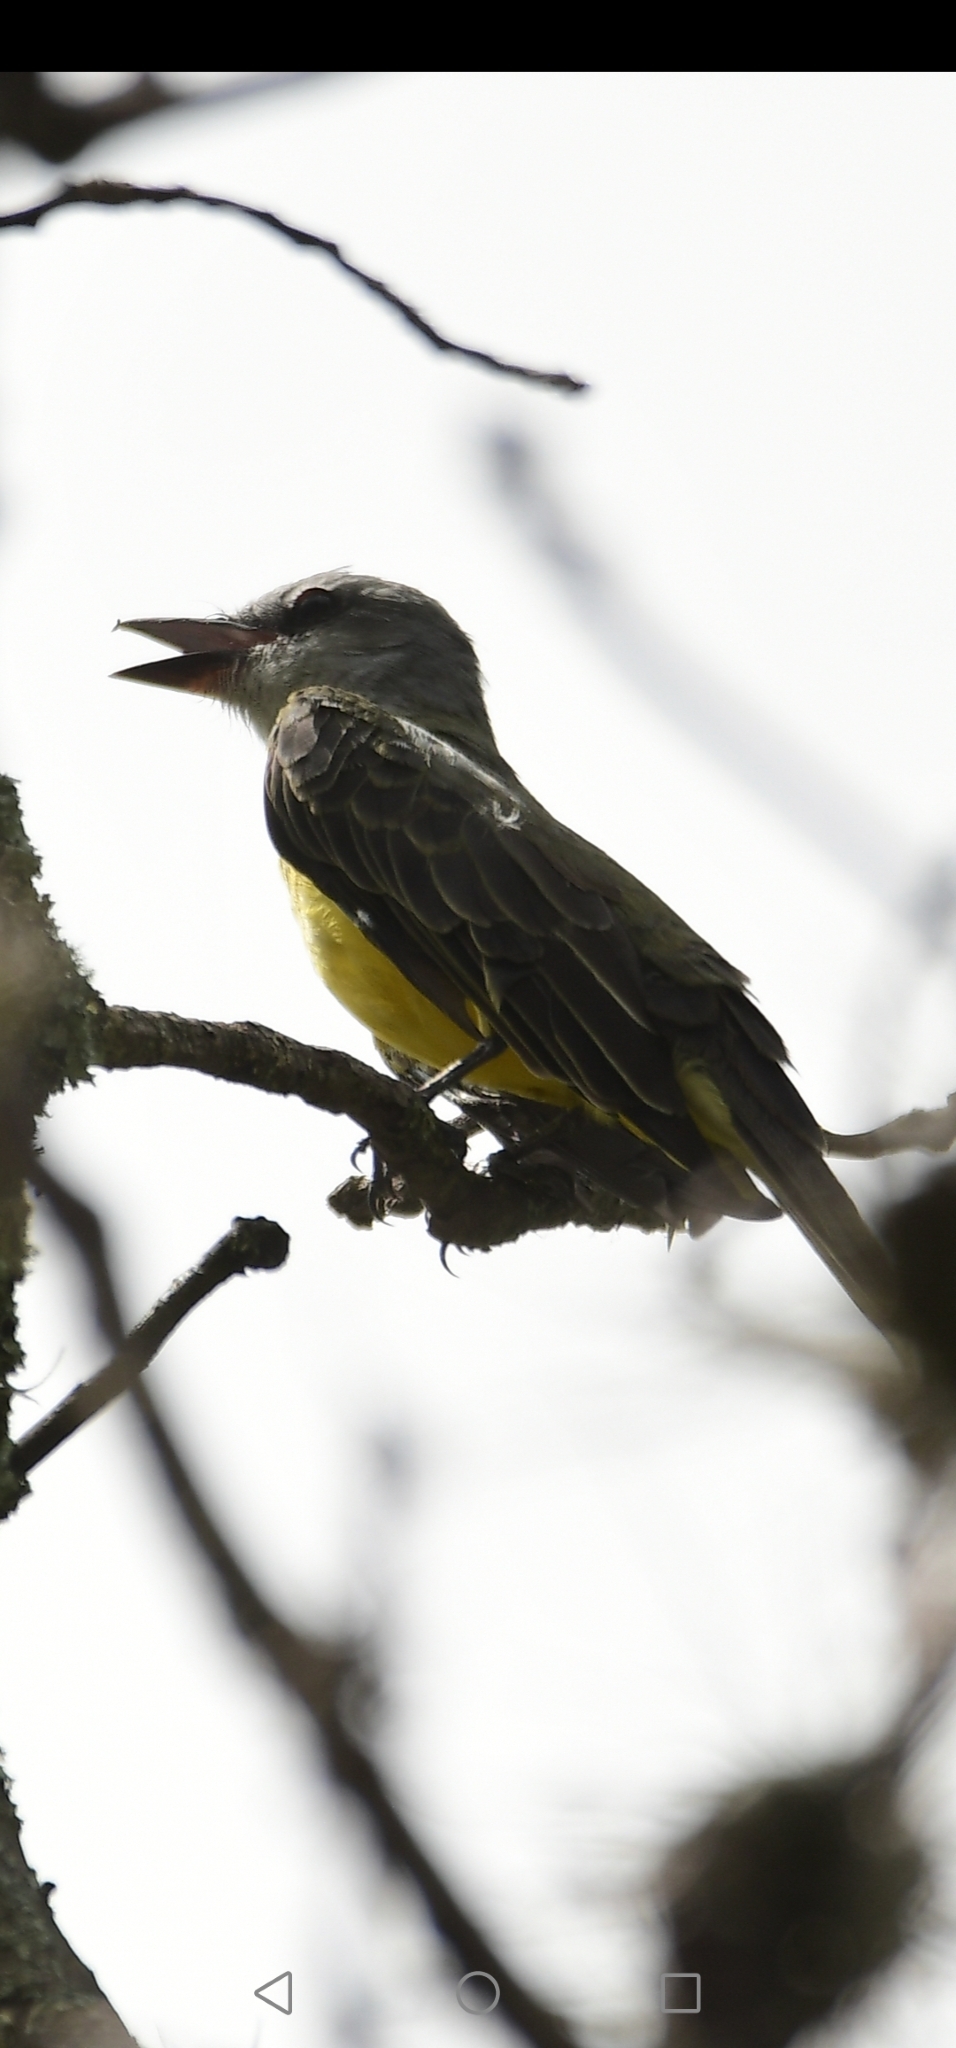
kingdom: Animalia
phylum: Chordata
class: Aves
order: Passeriformes
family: Tyrannidae
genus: Tyrannus
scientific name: Tyrannus melancholicus
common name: Tropical kingbird
